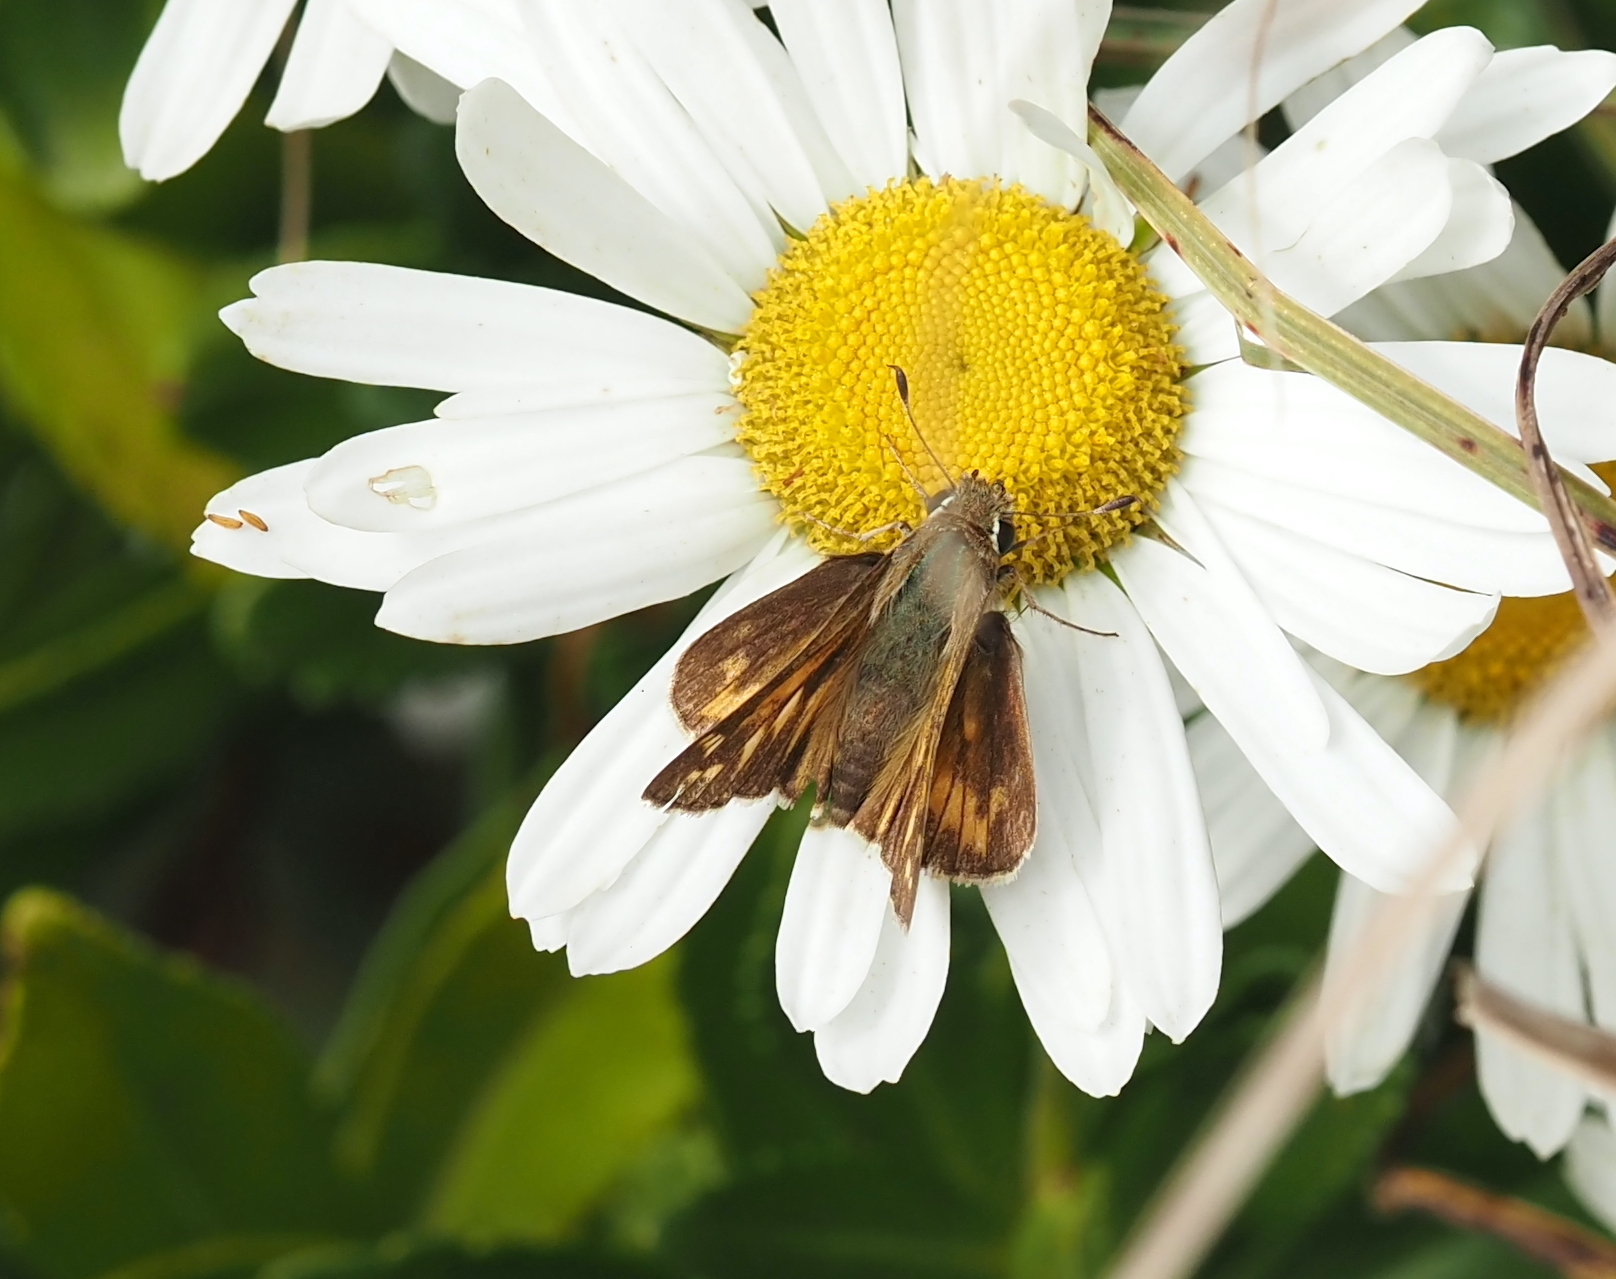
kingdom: Animalia
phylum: Arthropoda
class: Insecta
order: Lepidoptera
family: Hesperiidae
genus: Atalopedes
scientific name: Atalopedes
